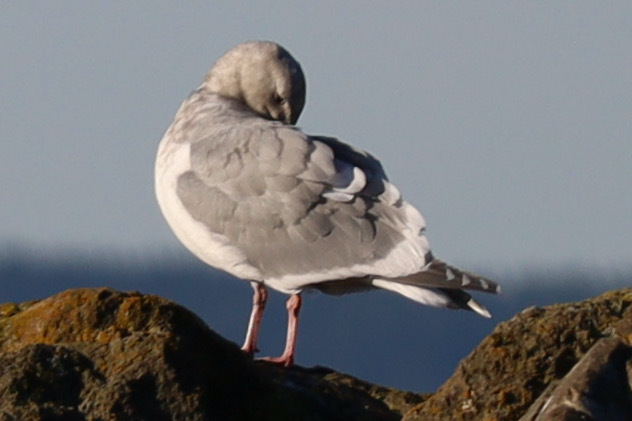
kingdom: Animalia
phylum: Chordata
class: Aves
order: Charadriiformes
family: Laridae
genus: Larus
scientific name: Larus
